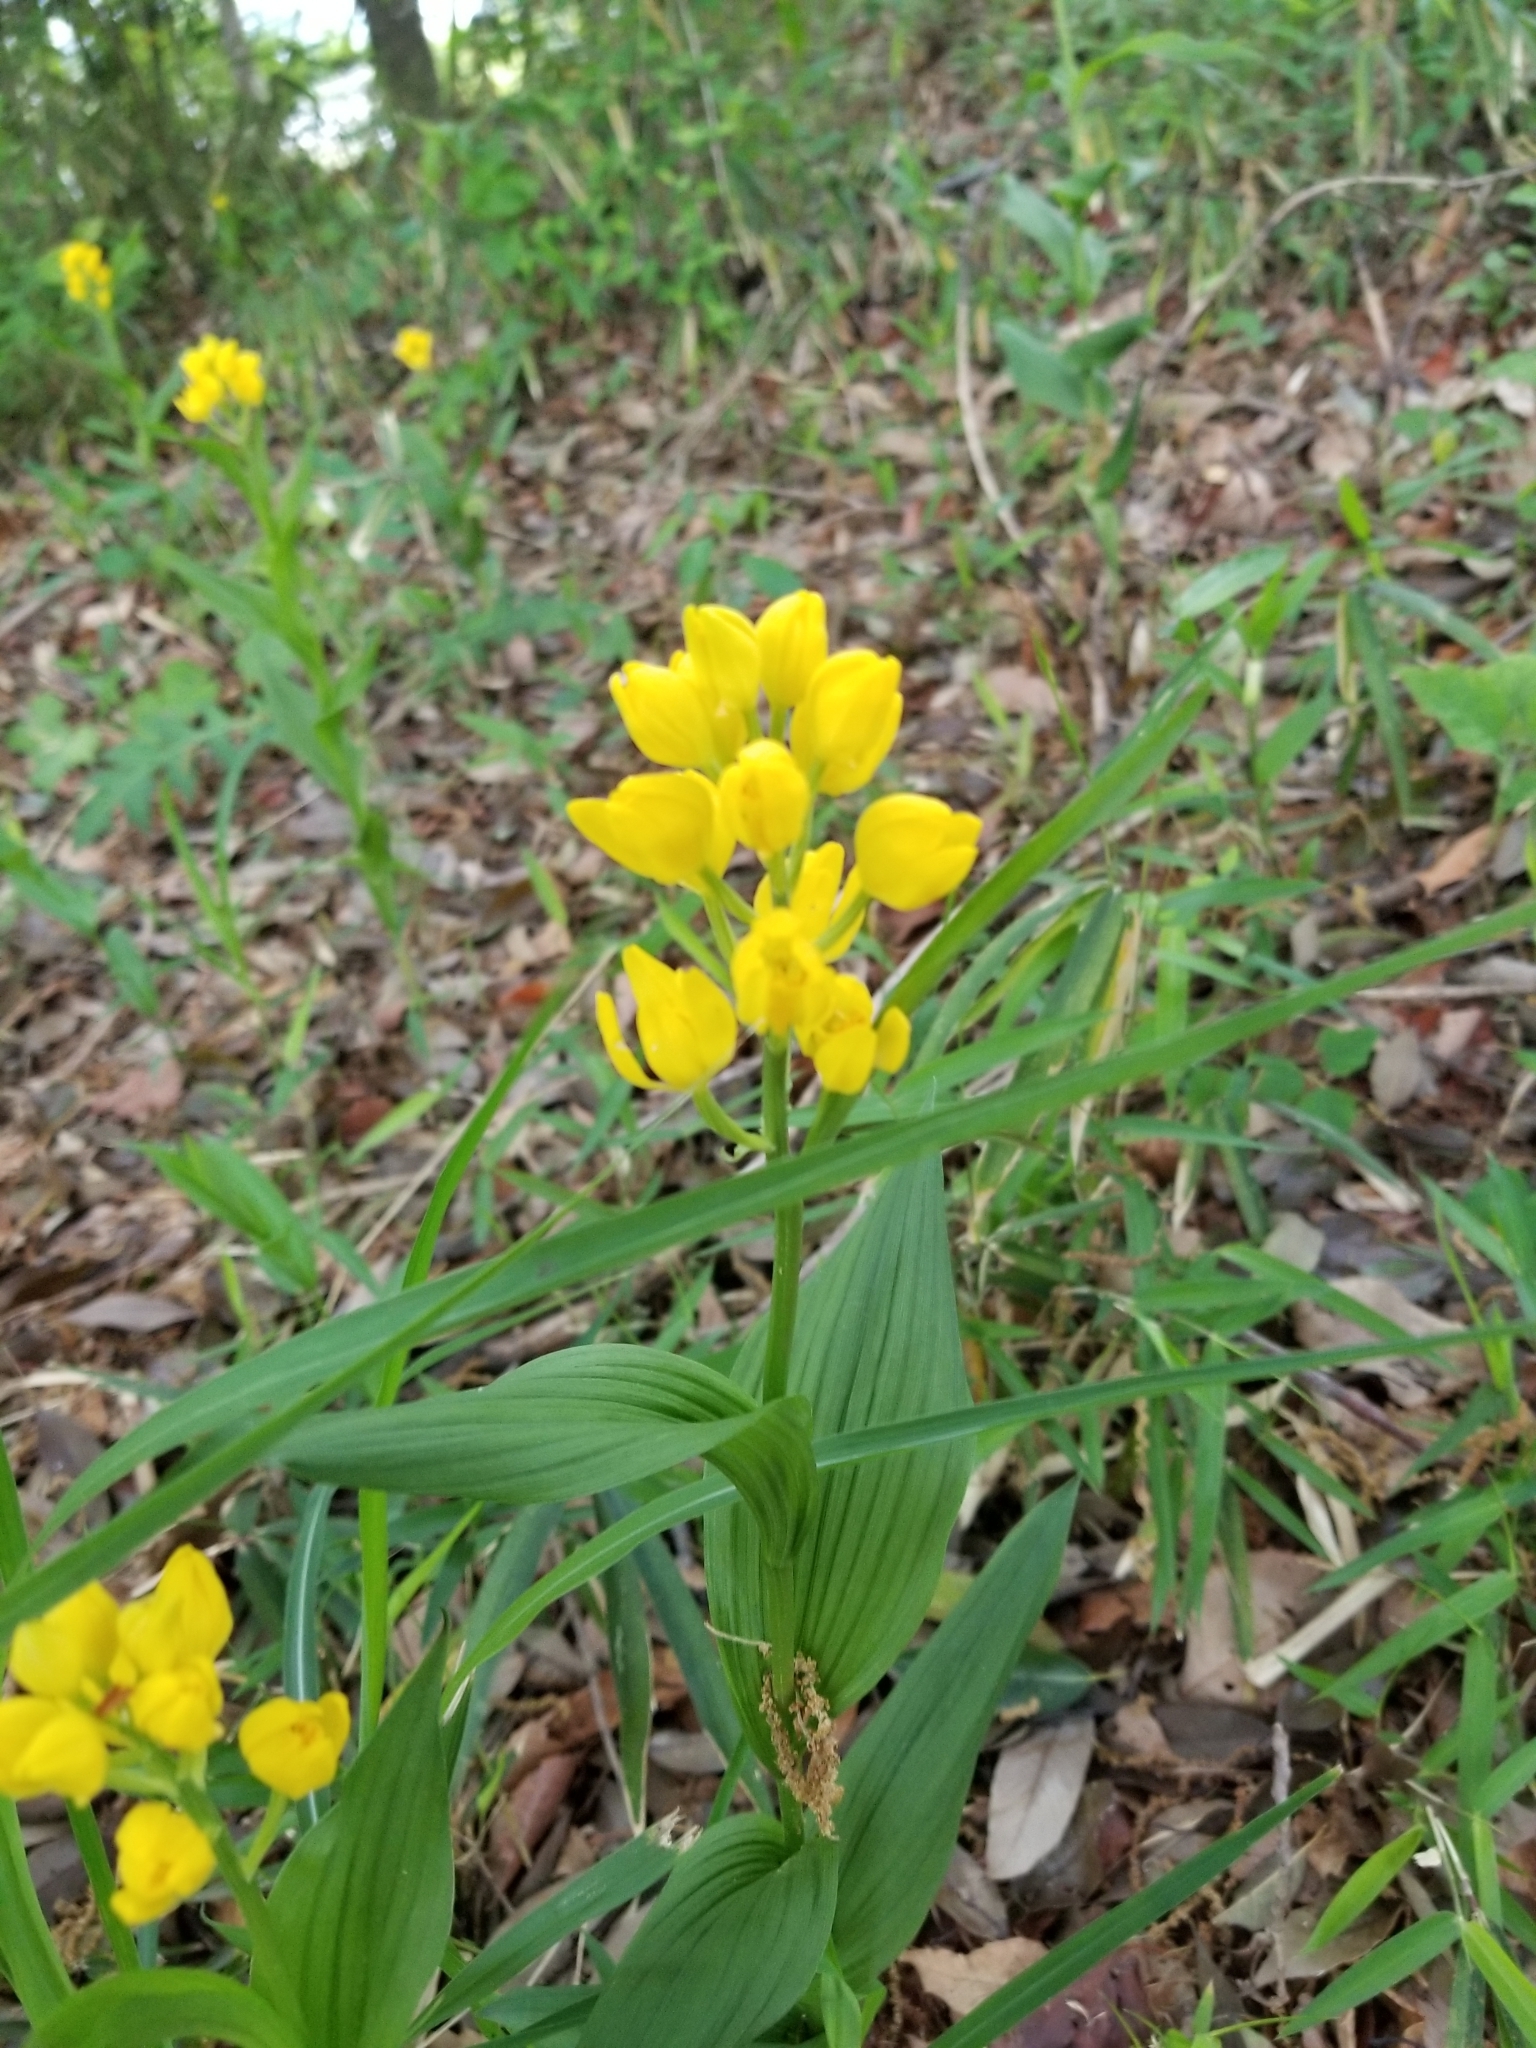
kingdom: Plantae
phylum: Tracheophyta
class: Liliopsida
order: Asparagales
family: Orchidaceae
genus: Cephalanthera
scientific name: Cephalanthera falcata
